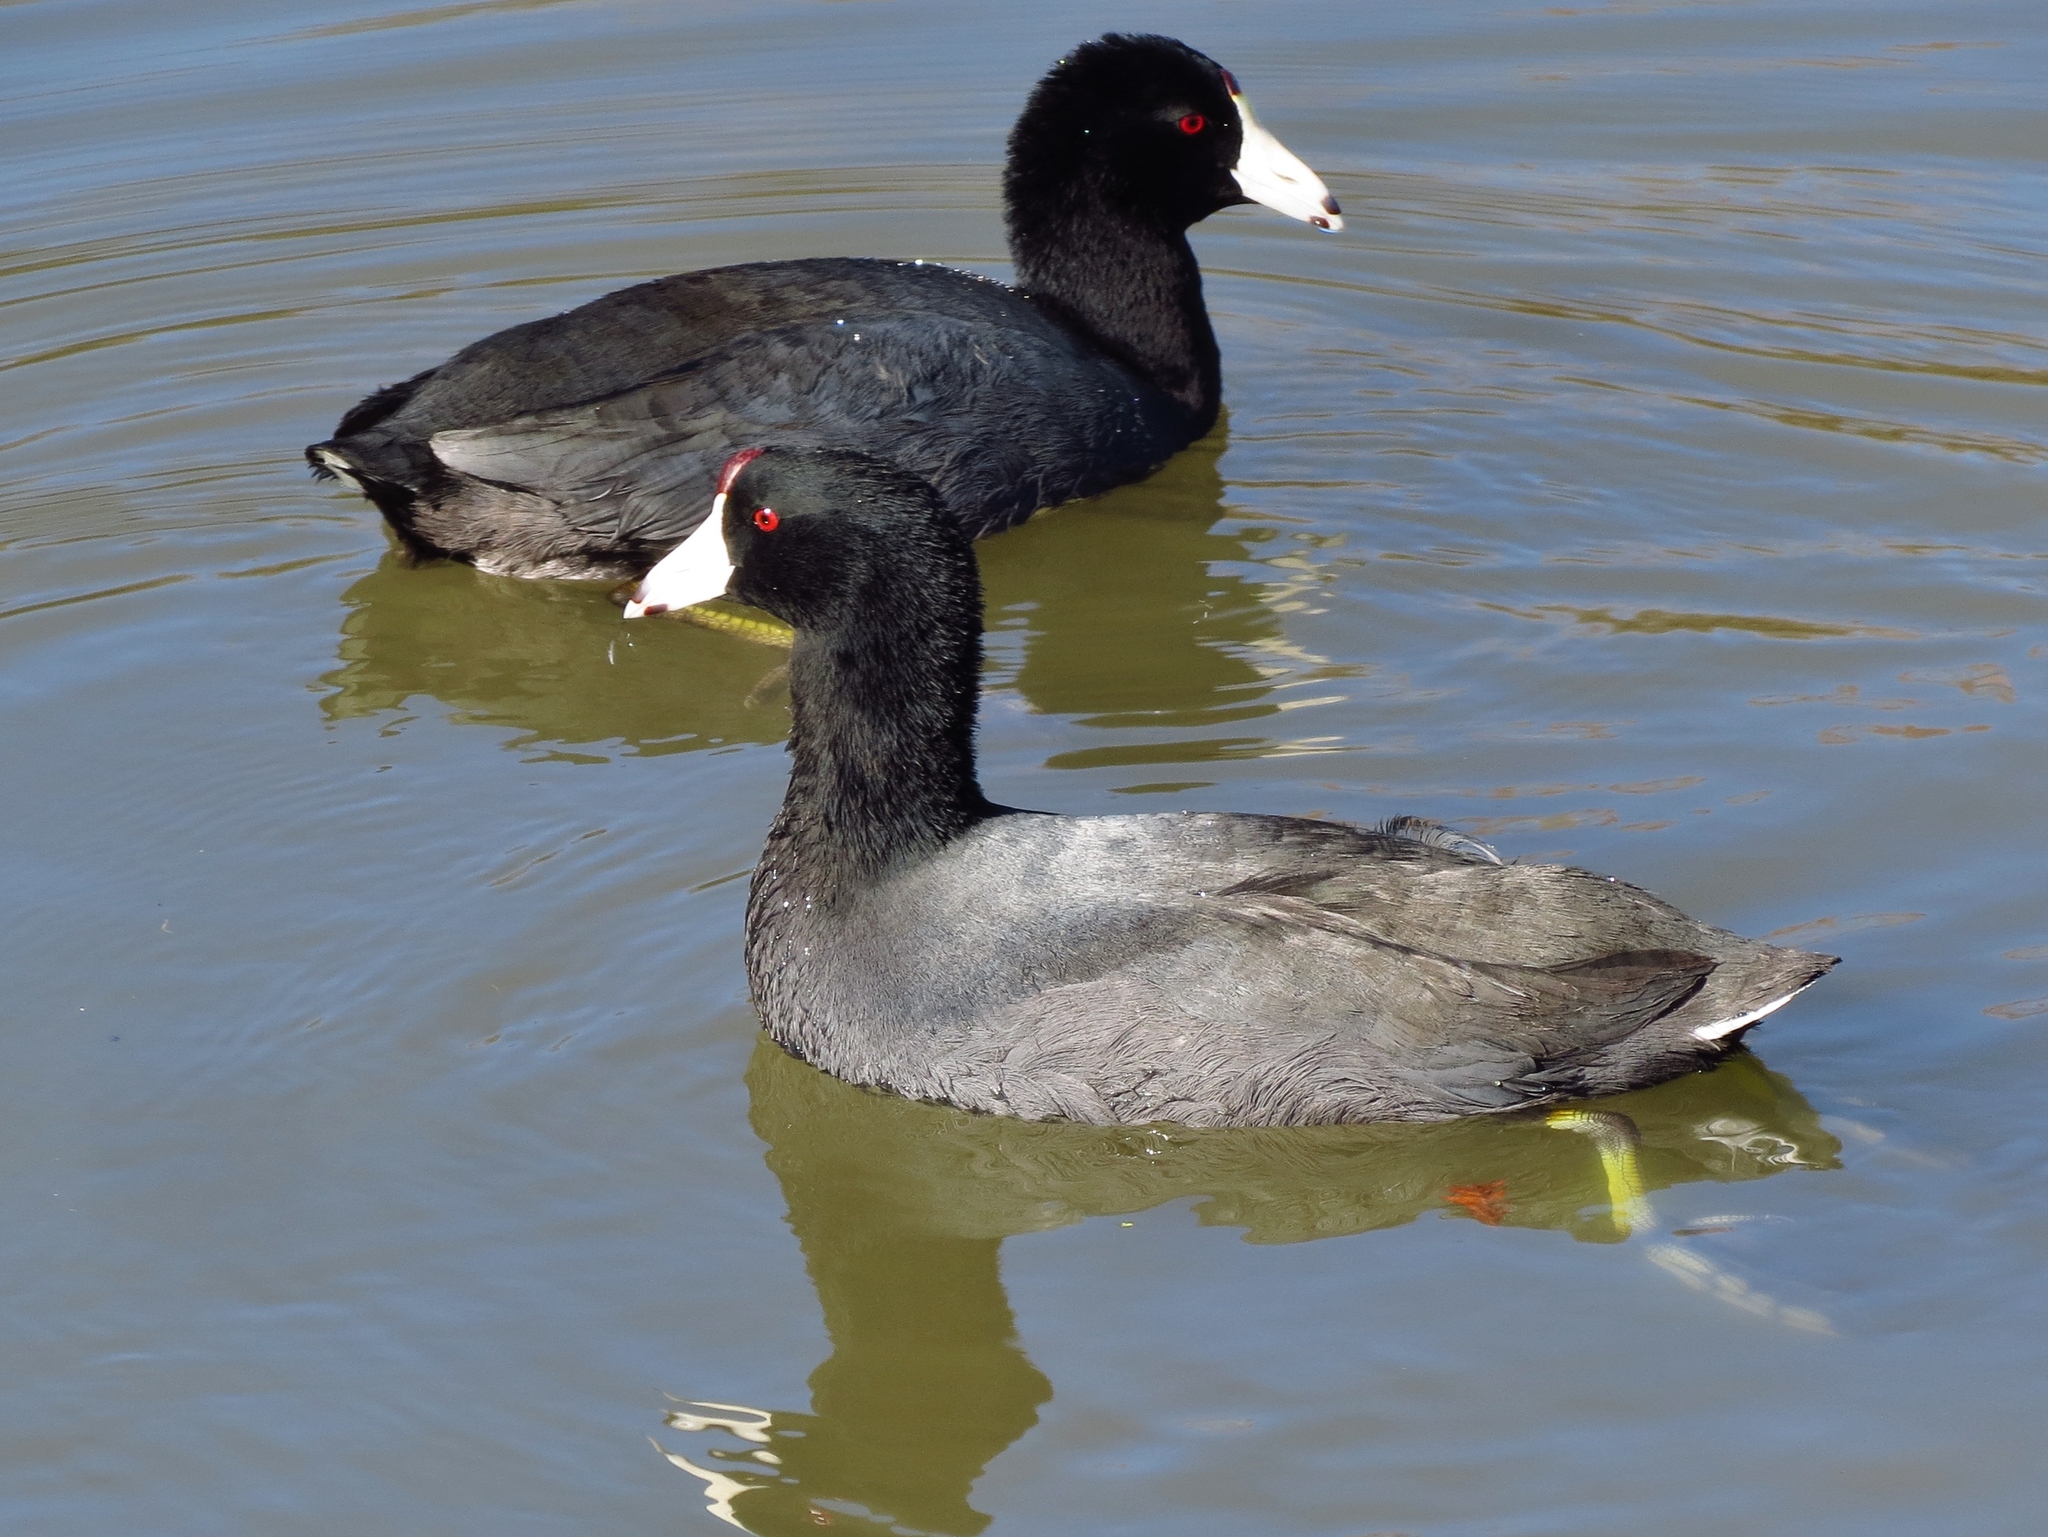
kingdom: Animalia
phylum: Chordata
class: Aves
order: Gruiformes
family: Rallidae
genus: Fulica
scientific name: Fulica americana
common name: American coot
